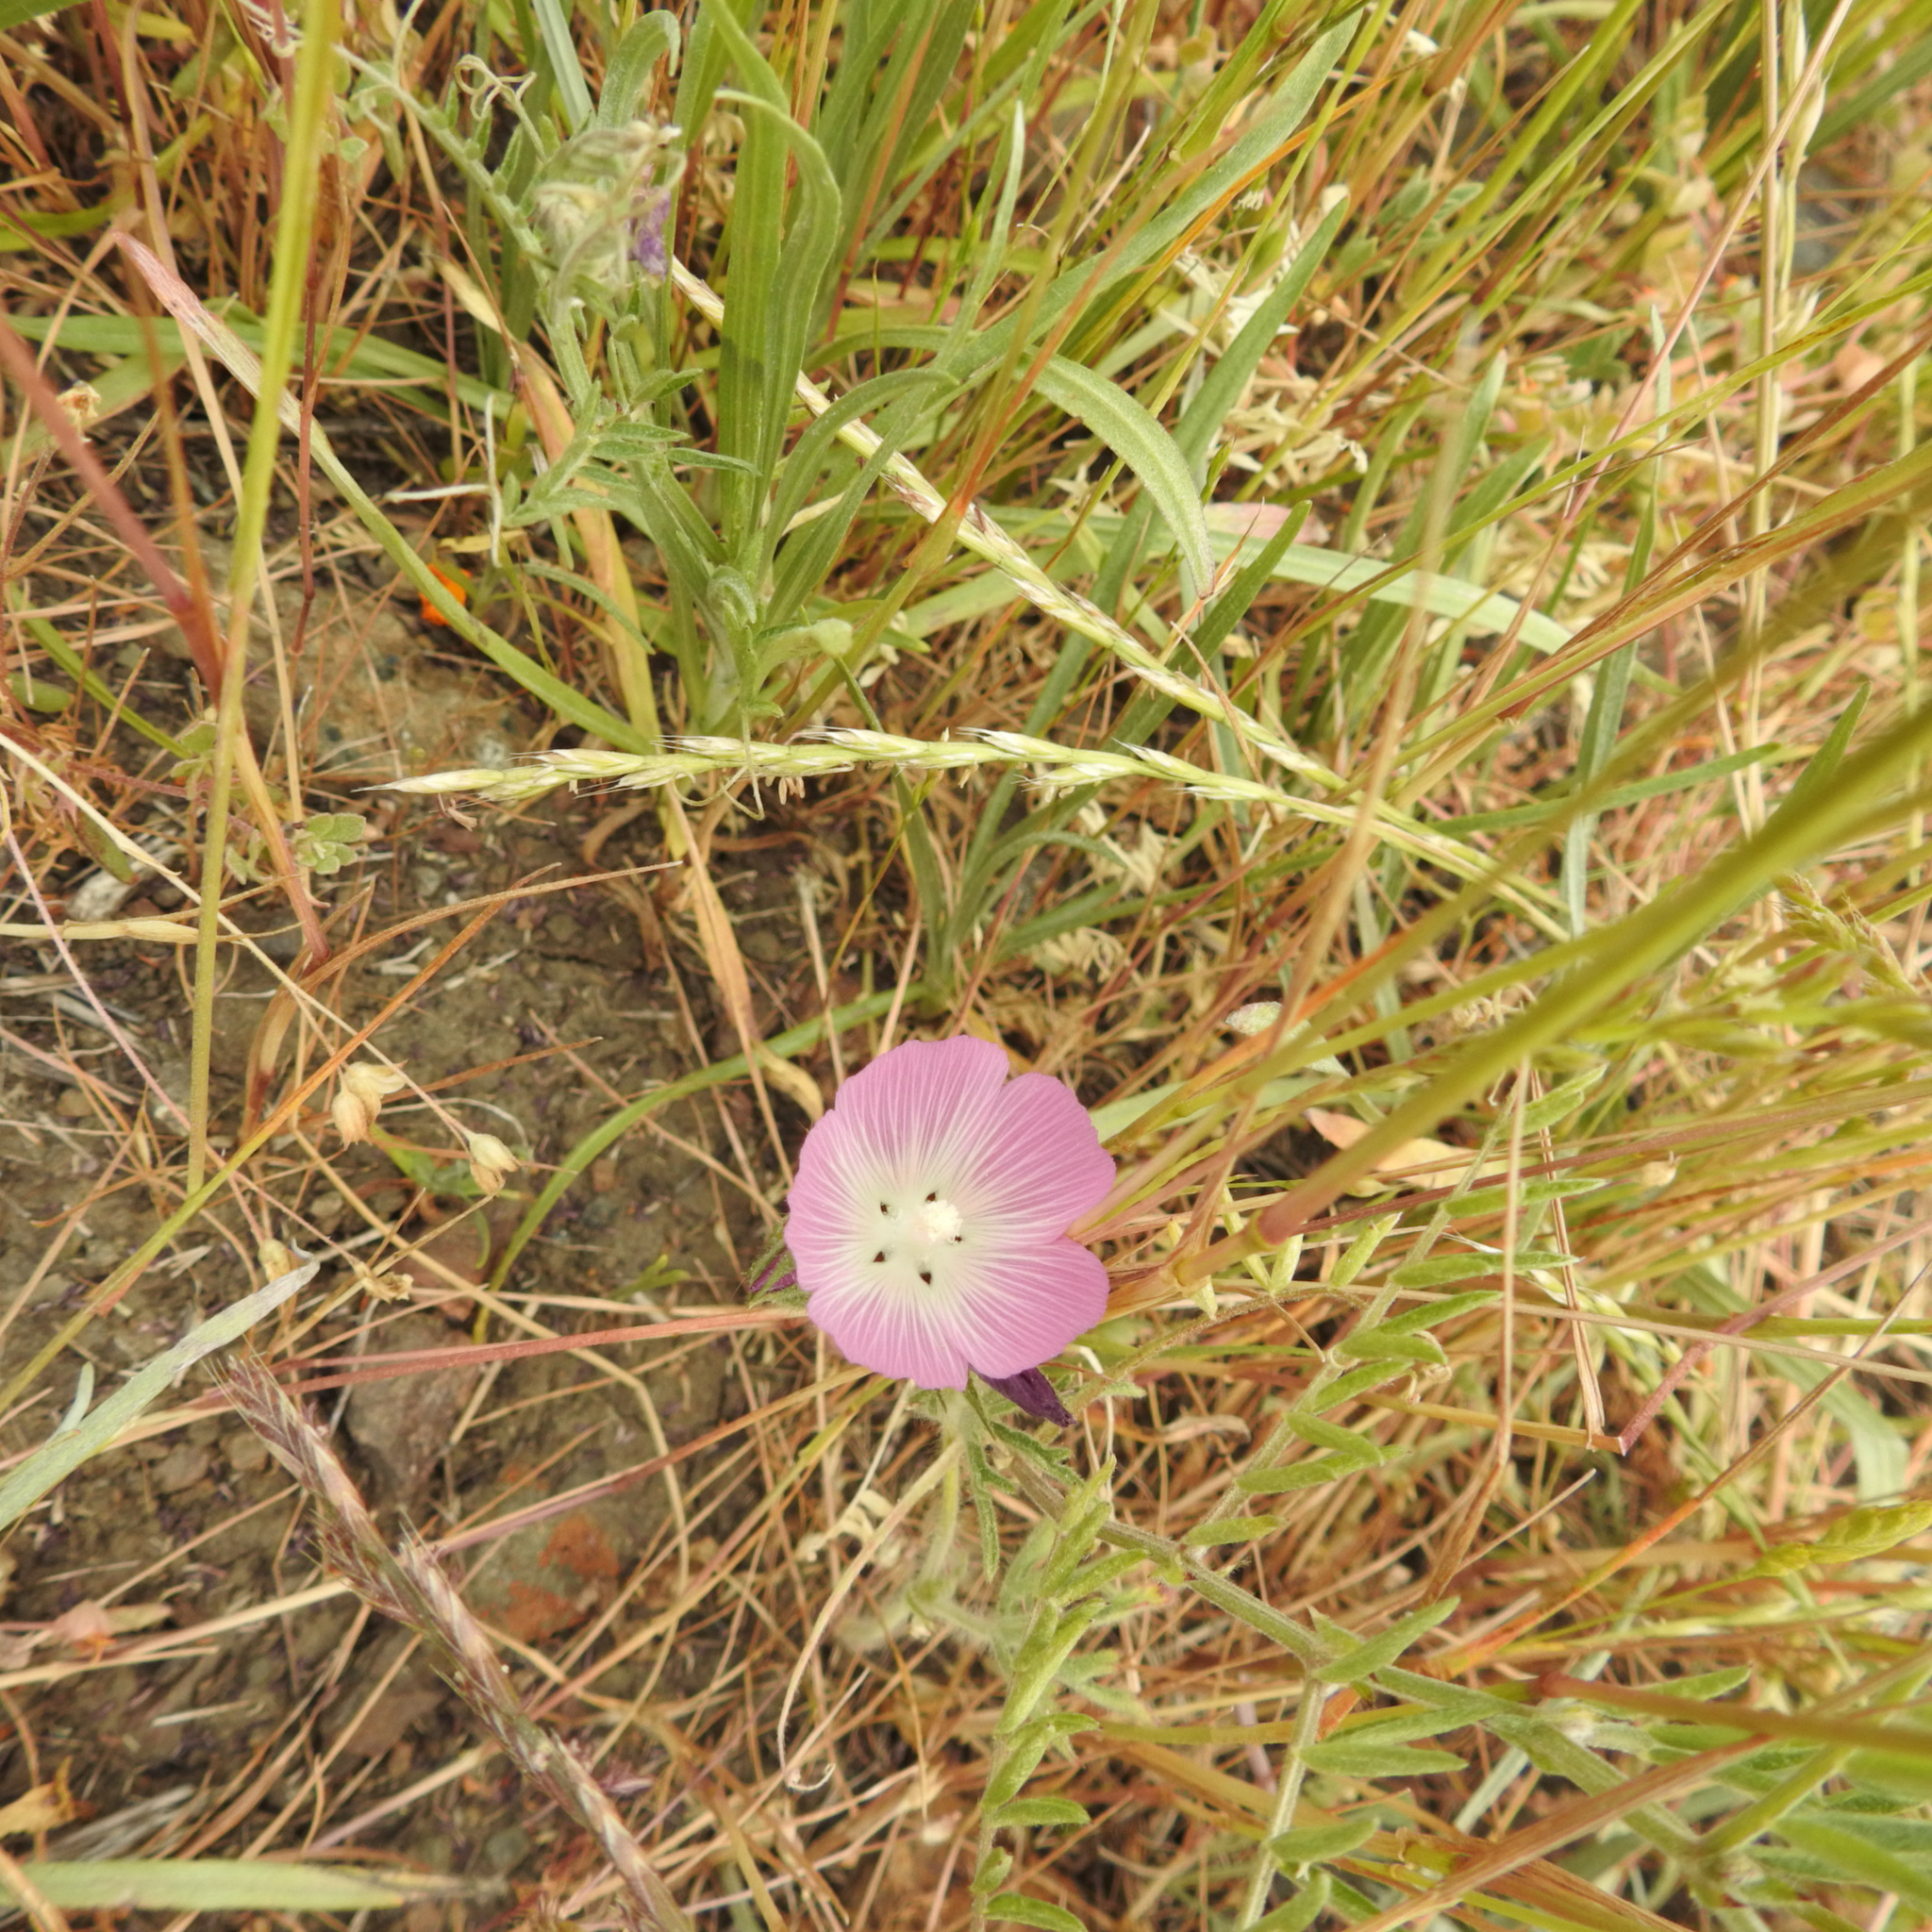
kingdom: Plantae
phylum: Tracheophyta
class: Magnoliopsida
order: Malvales
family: Malvaceae
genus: Sidalcea
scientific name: Sidalcea diploscypha
